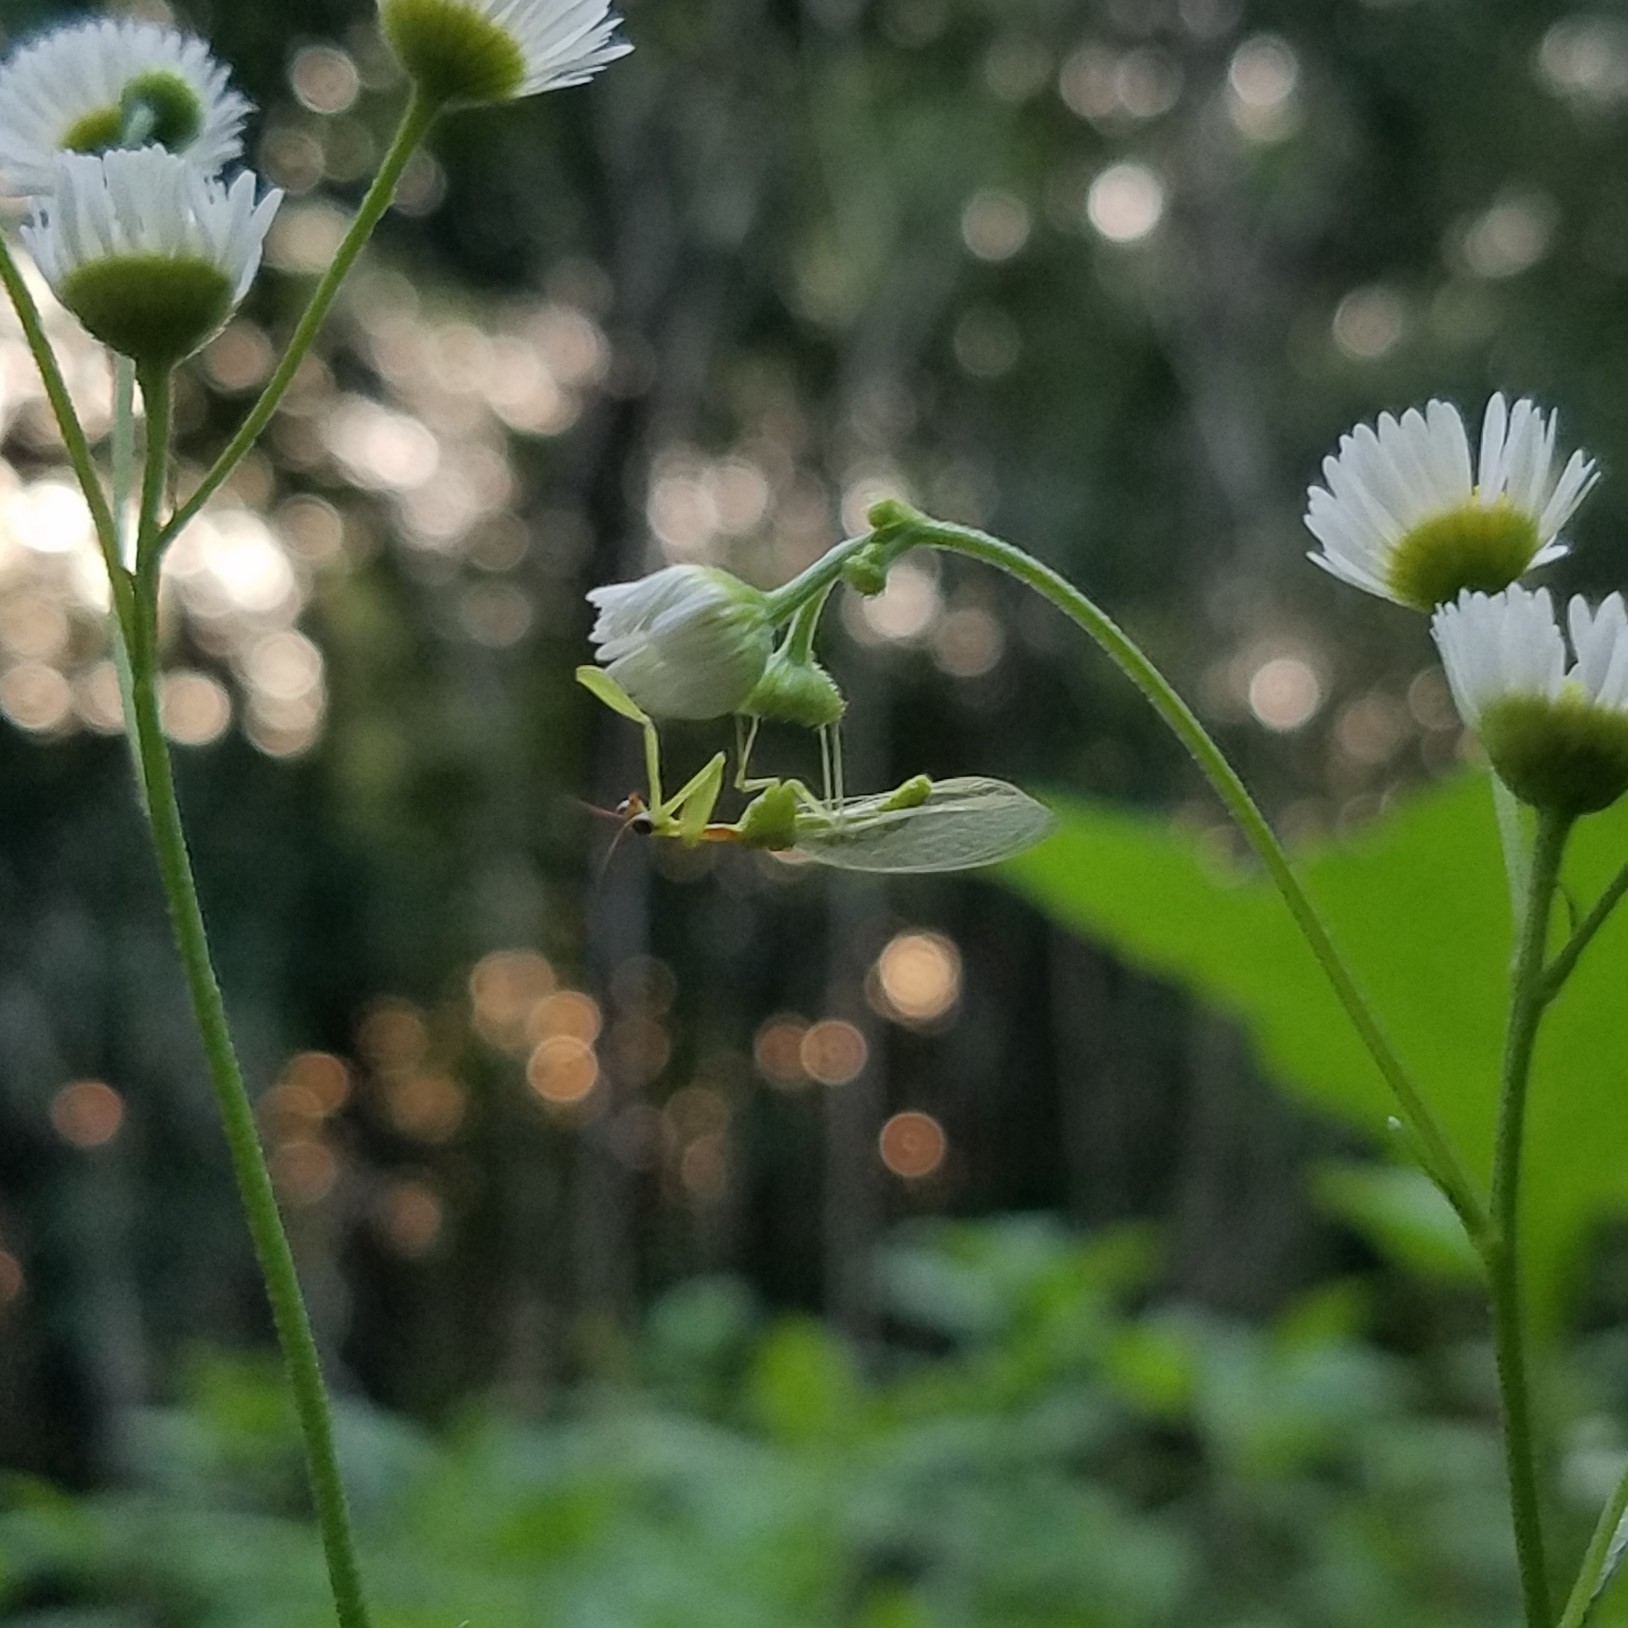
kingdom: Animalia
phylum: Arthropoda
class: Insecta
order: Neuroptera
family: Mantispidae
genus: Zeugomantispa
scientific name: Zeugomantispa minuta
